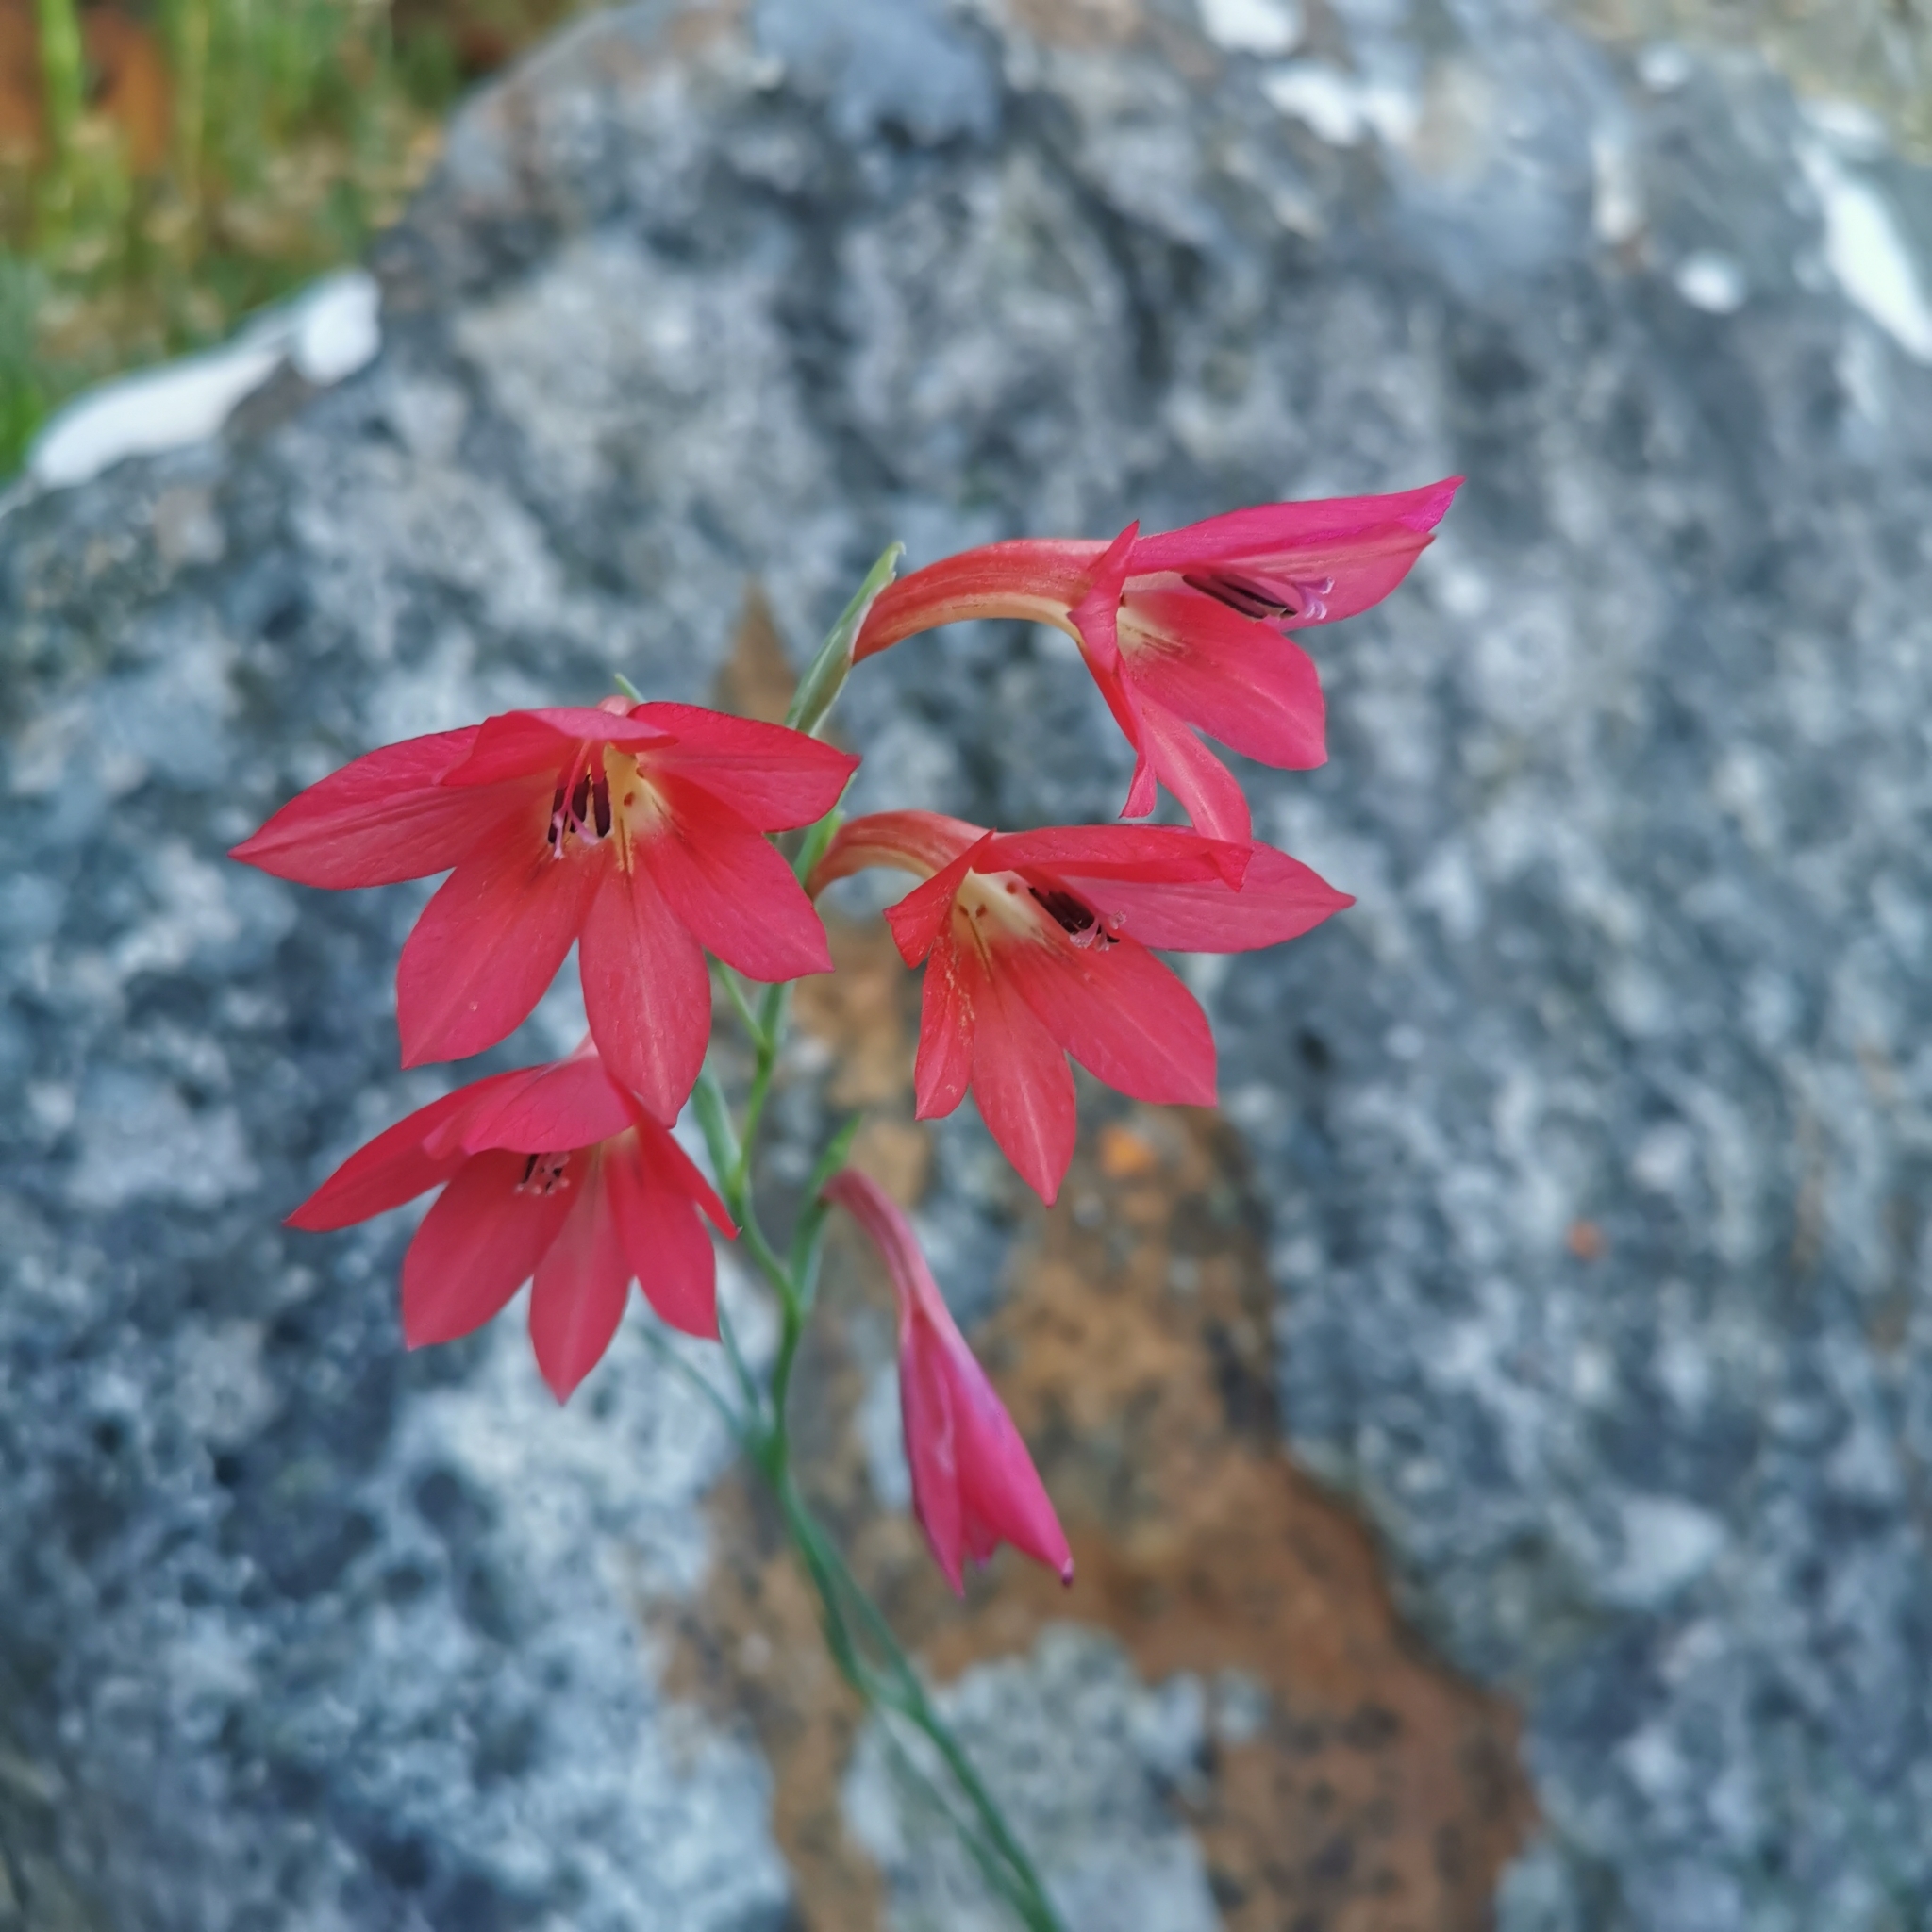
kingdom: Plantae
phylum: Tracheophyta
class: Liliopsida
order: Asparagales
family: Iridaceae
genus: Gladiolus
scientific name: Gladiolus priorii
